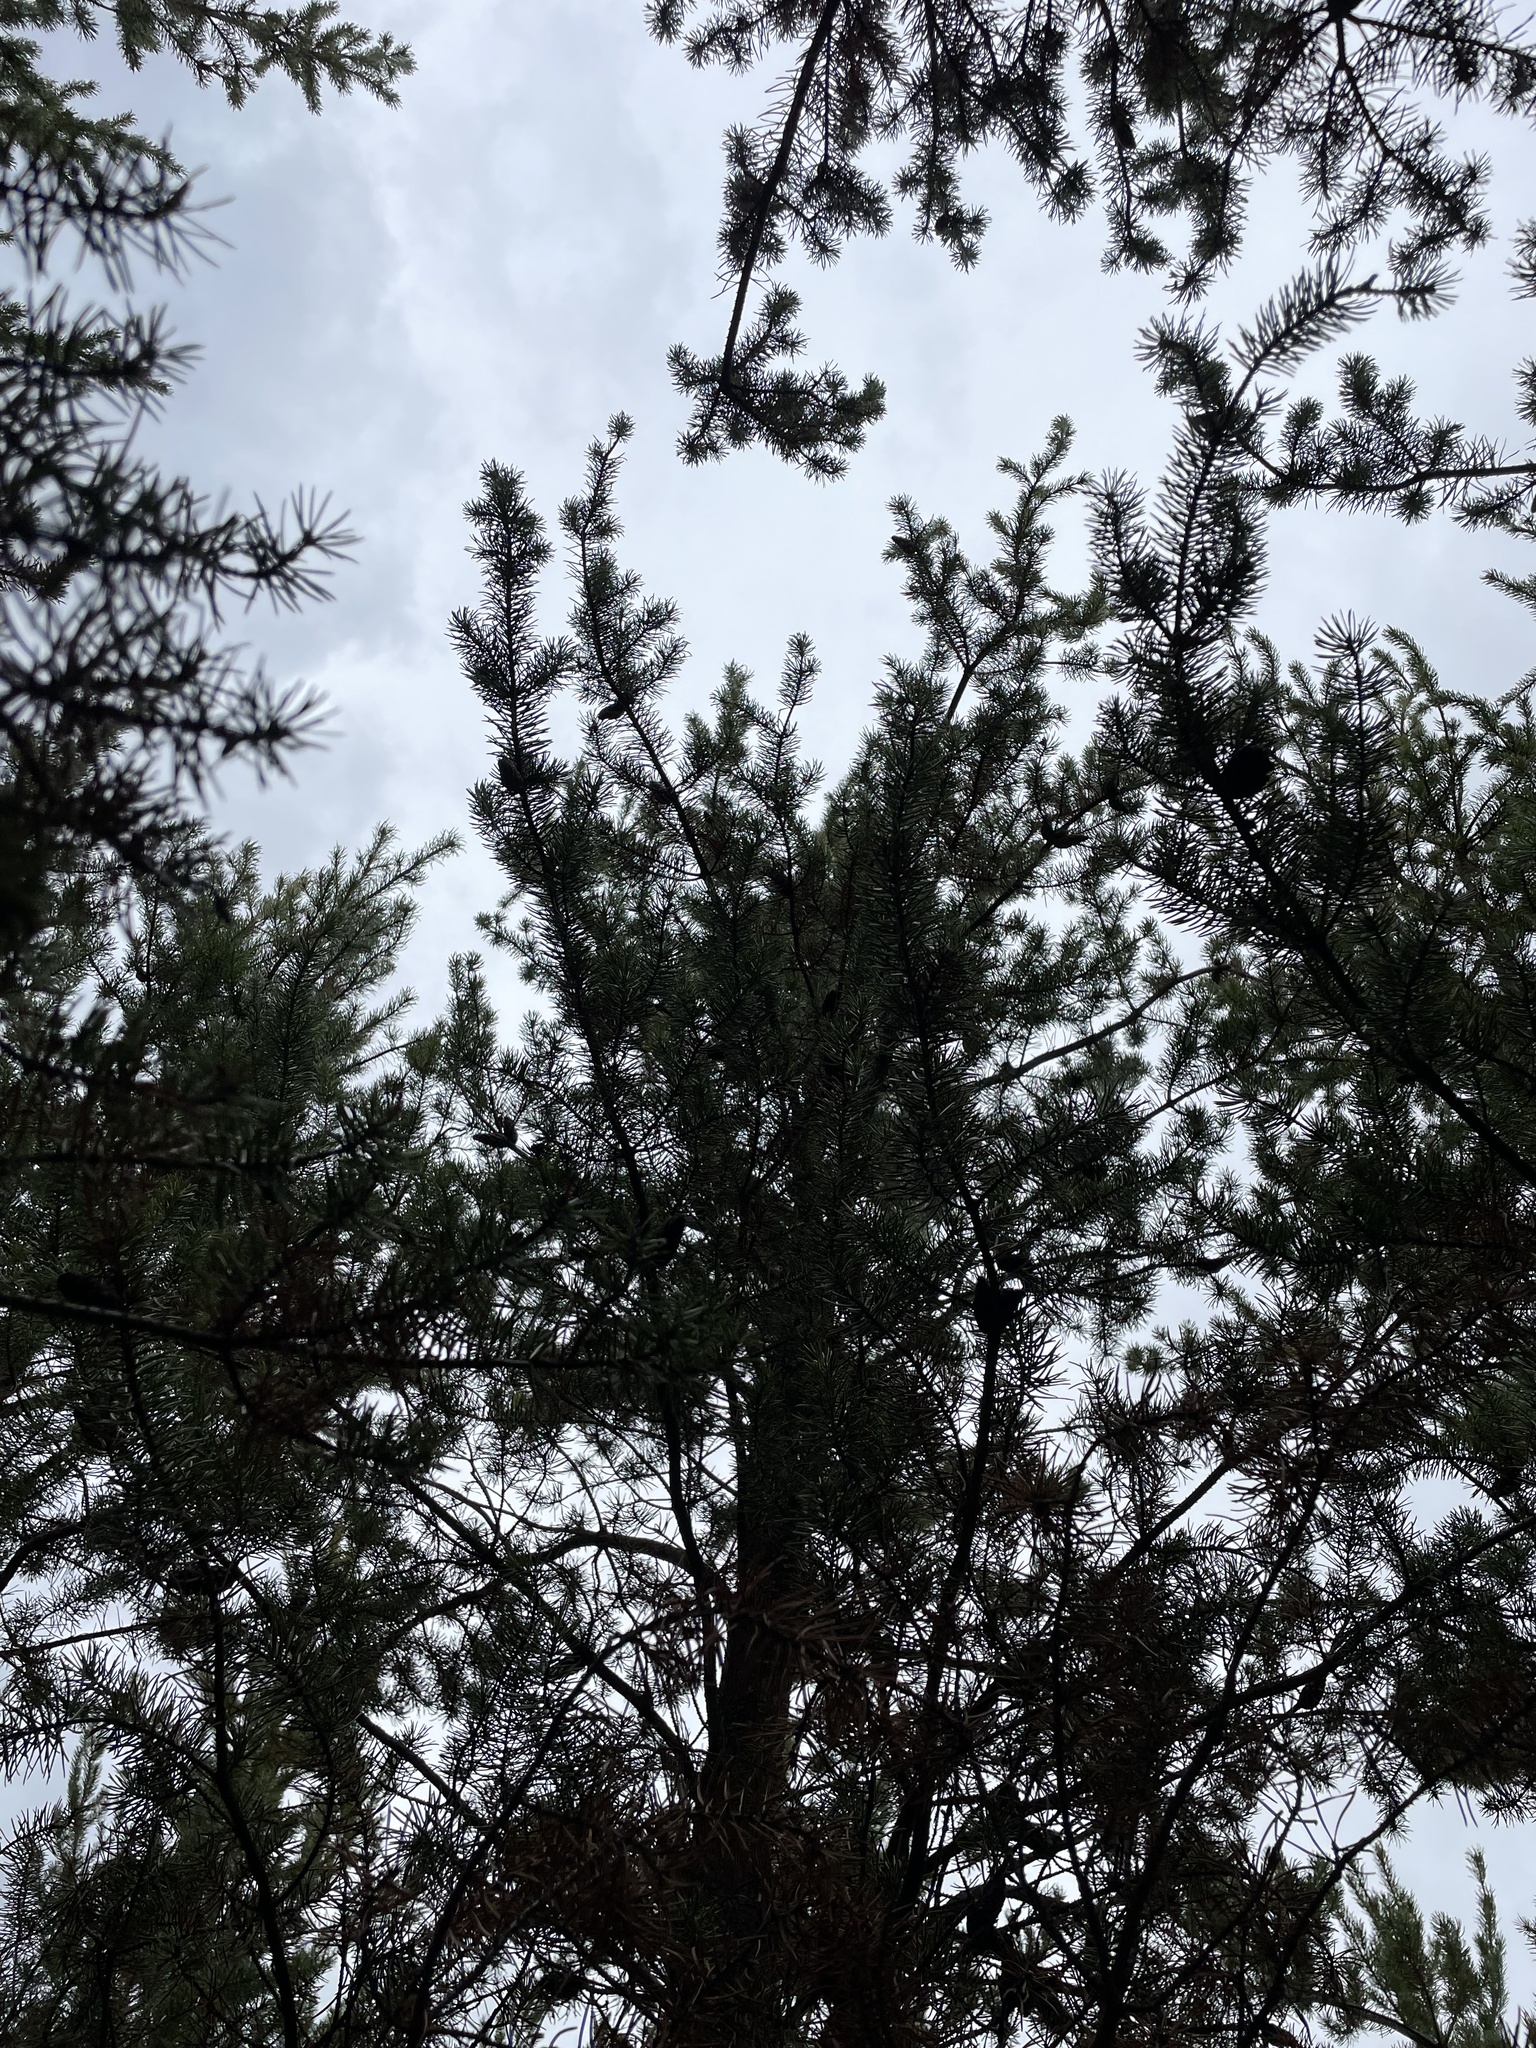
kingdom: Plantae
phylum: Tracheophyta
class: Pinopsida
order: Pinales
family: Pinaceae
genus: Pinus
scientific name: Pinus banksiana
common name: Jack pine
